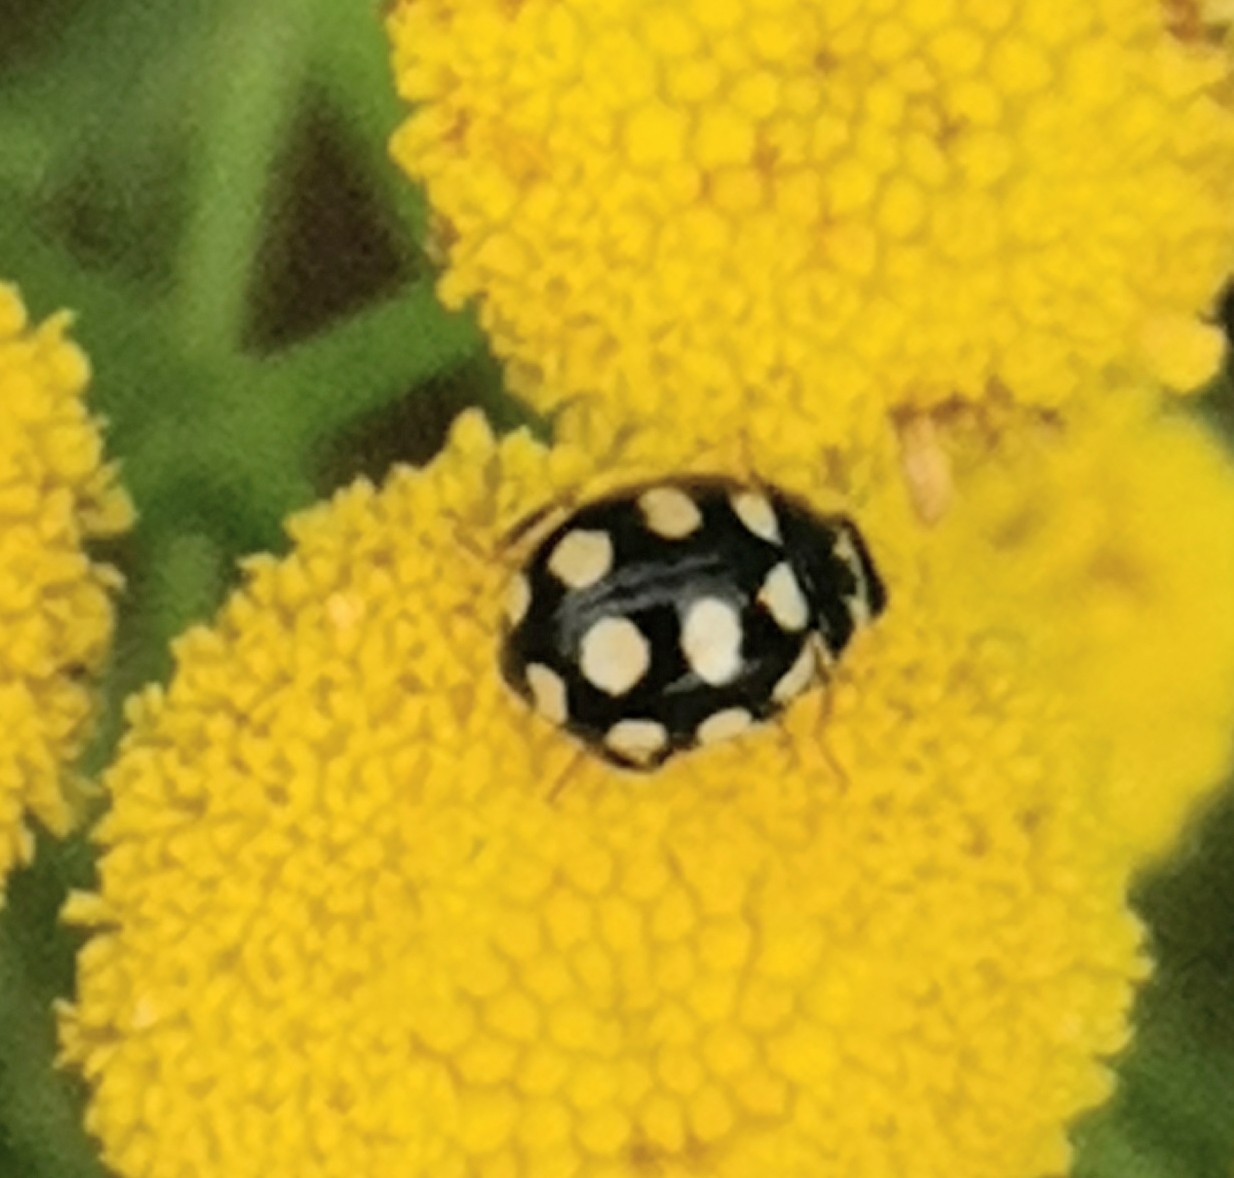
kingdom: Animalia
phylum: Arthropoda
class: Insecta
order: Coleoptera
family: Coccinellidae
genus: Coccinula
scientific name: Coccinula quatuordecimpustulata
